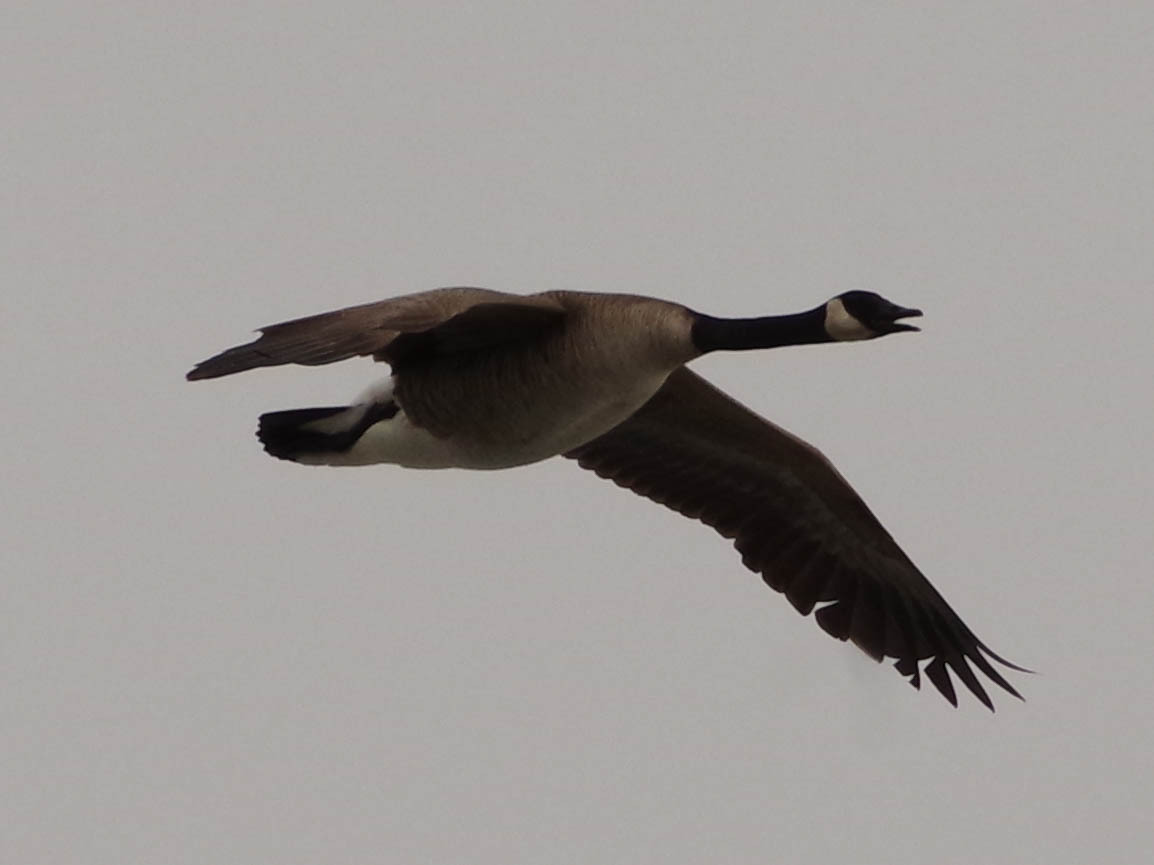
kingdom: Animalia
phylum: Chordata
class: Aves
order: Anseriformes
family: Anatidae
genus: Branta
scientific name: Branta canadensis
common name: Canada goose
